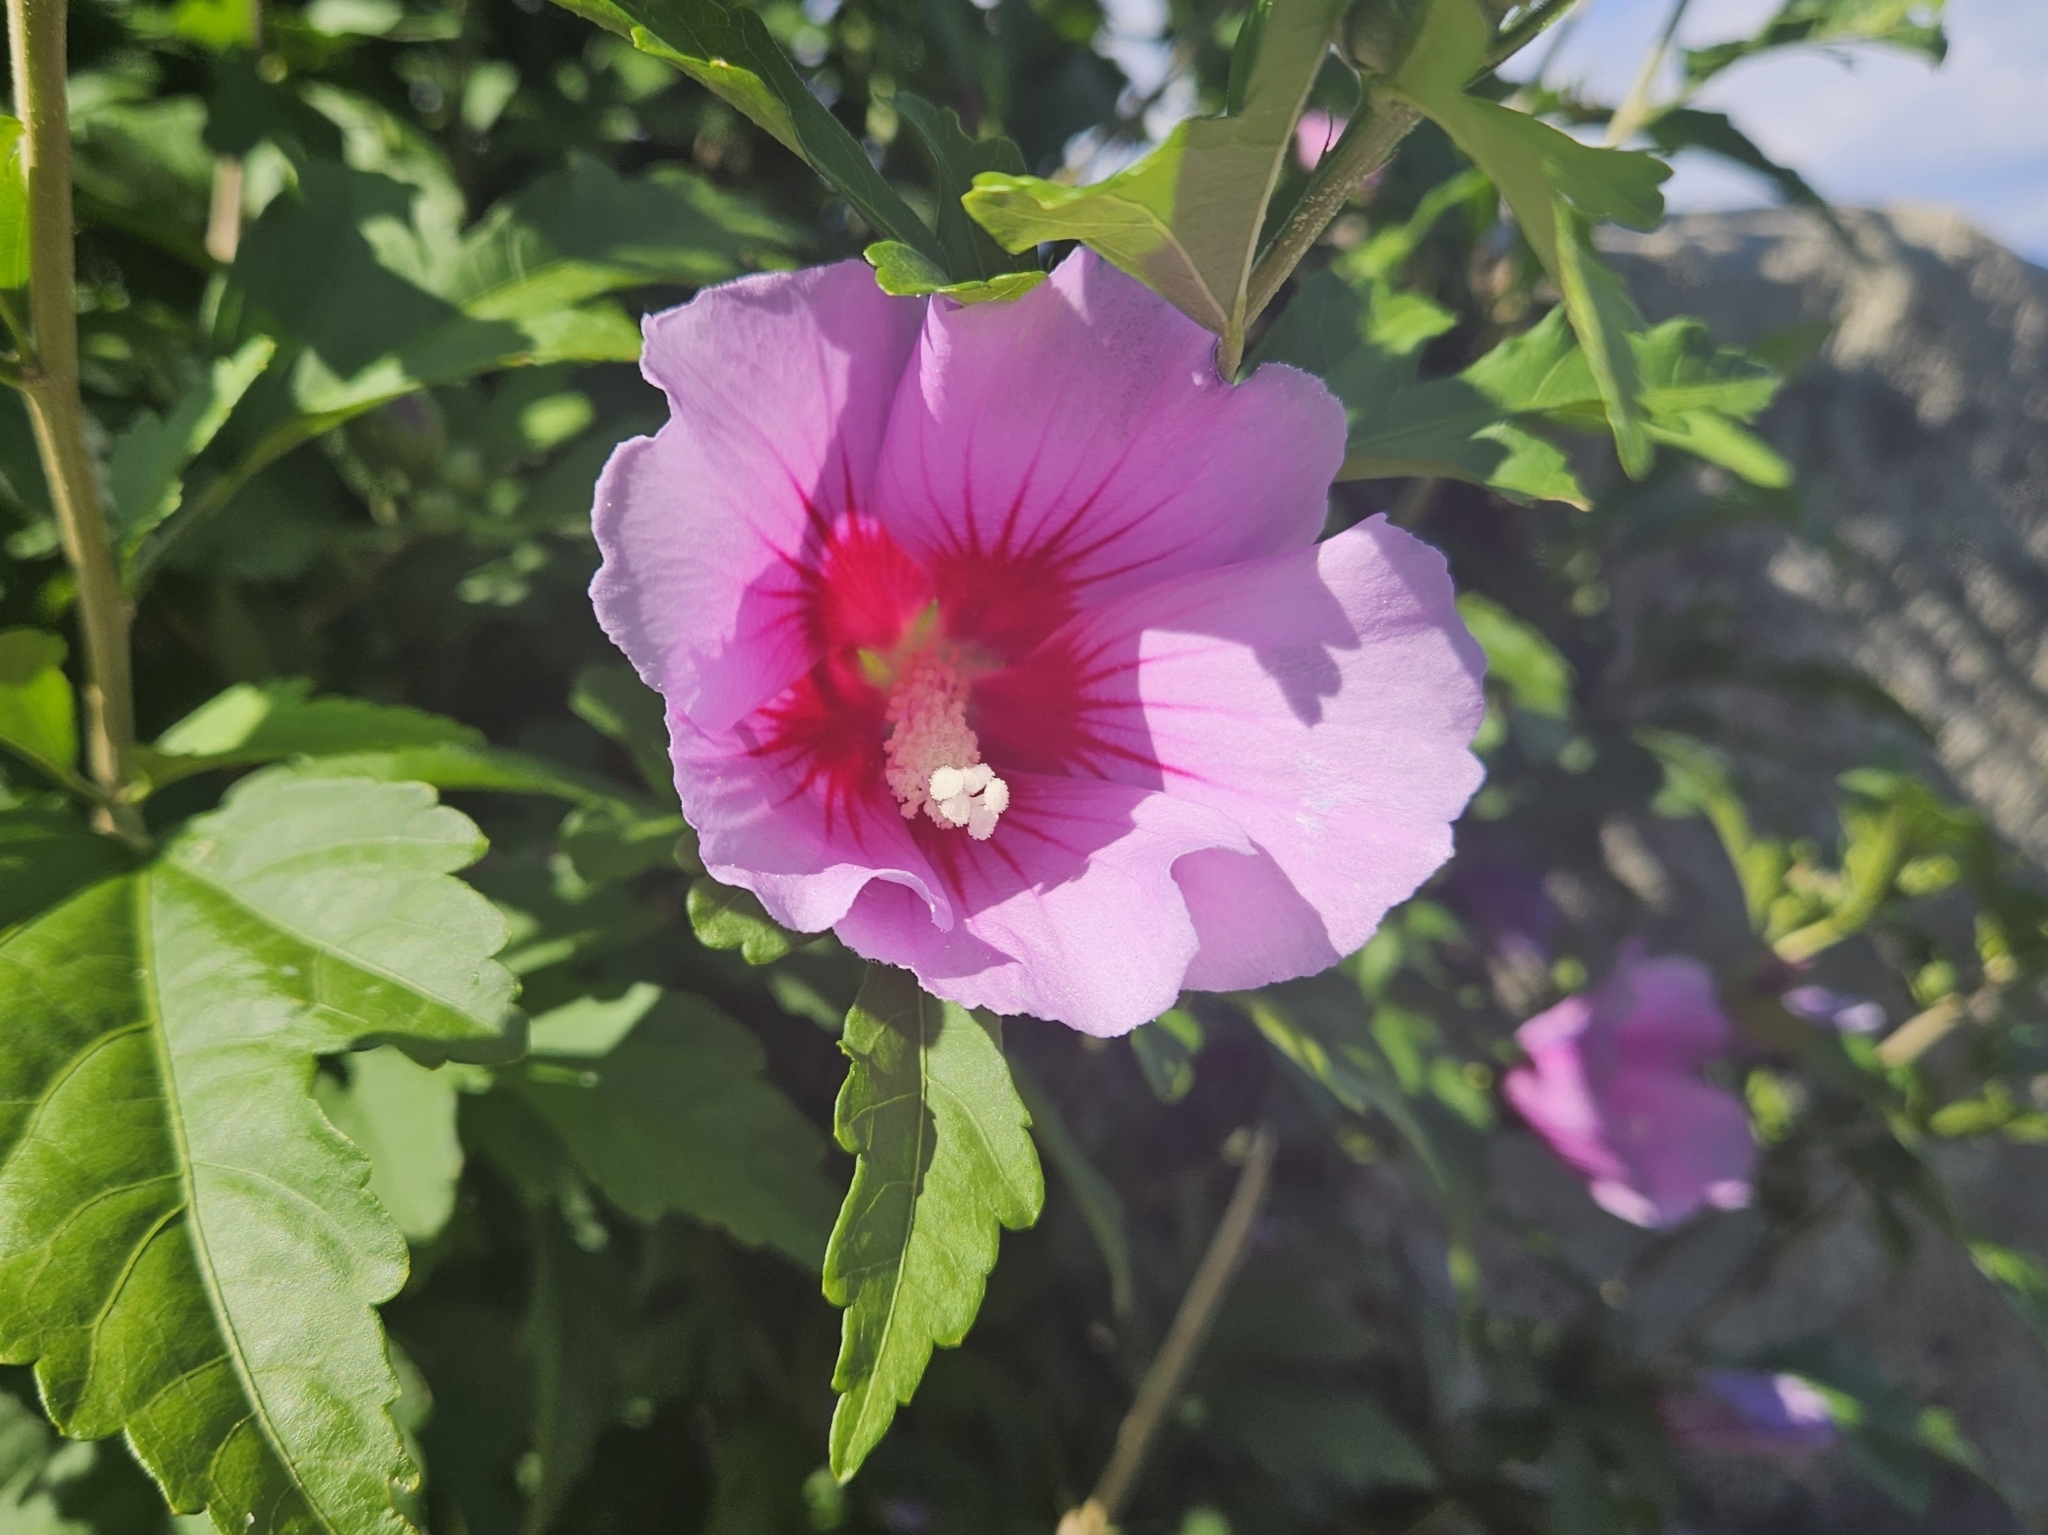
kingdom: Plantae
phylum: Tracheophyta
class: Magnoliopsida
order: Malvales
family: Malvaceae
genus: Hibiscus
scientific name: Hibiscus syriacus
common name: Syrian ketmia
